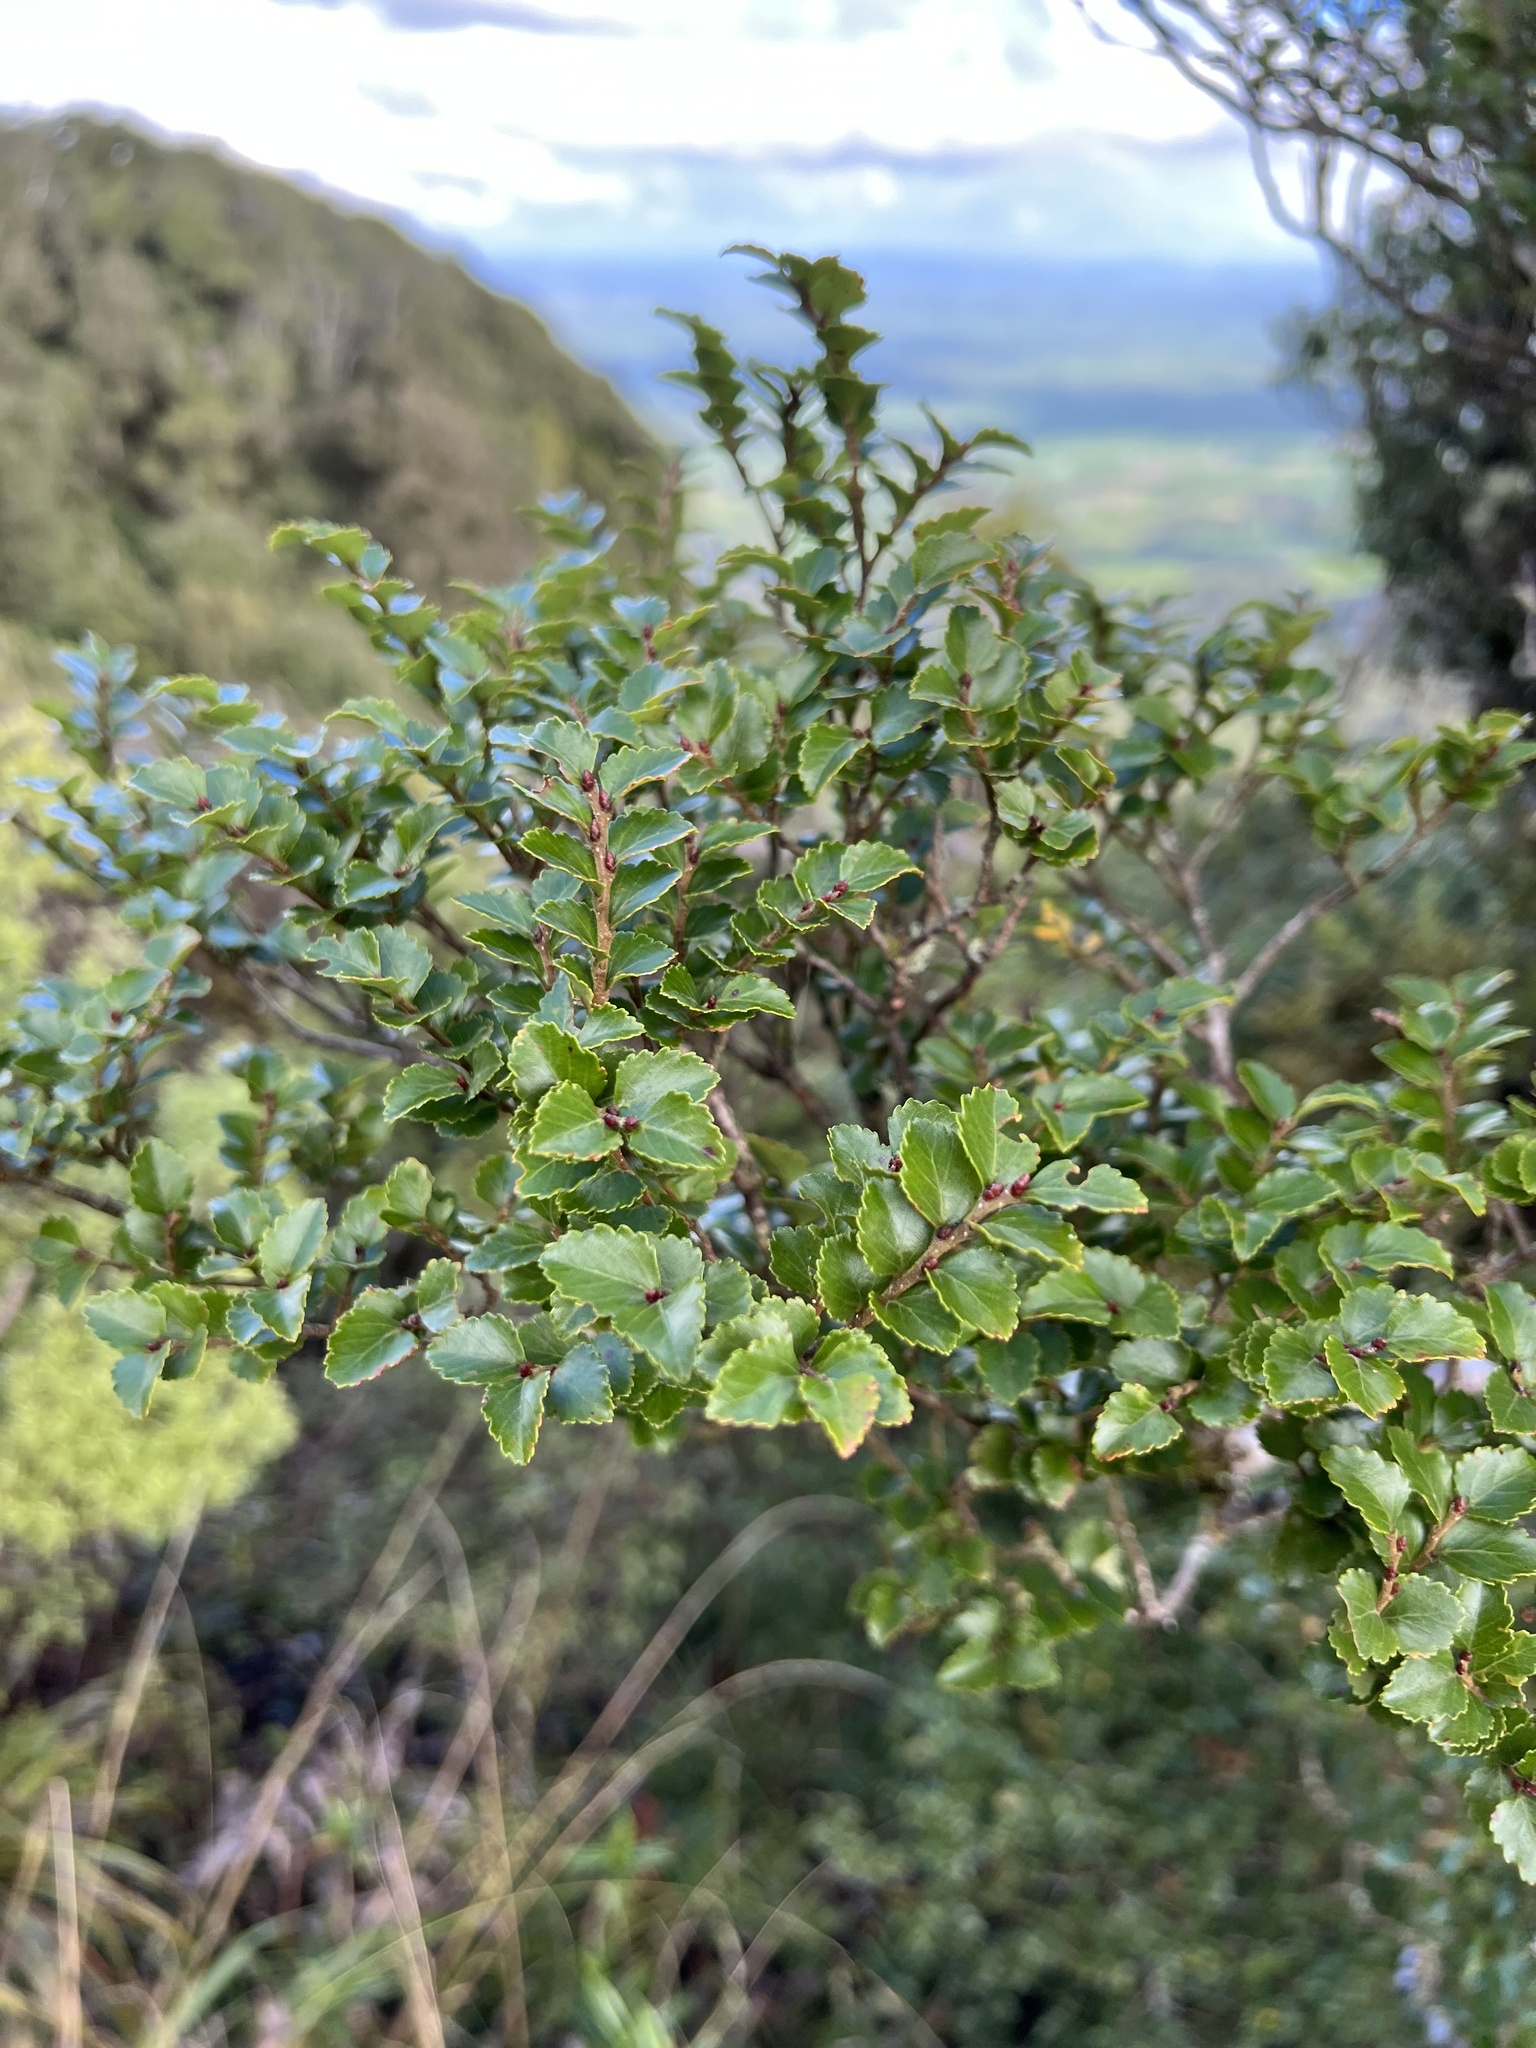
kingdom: Plantae
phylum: Tracheophyta
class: Magnoliopsida
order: Fagales
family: Nothofagaceae
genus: Nothofagus
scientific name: Nothofagus menziesii
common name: Silver beech
